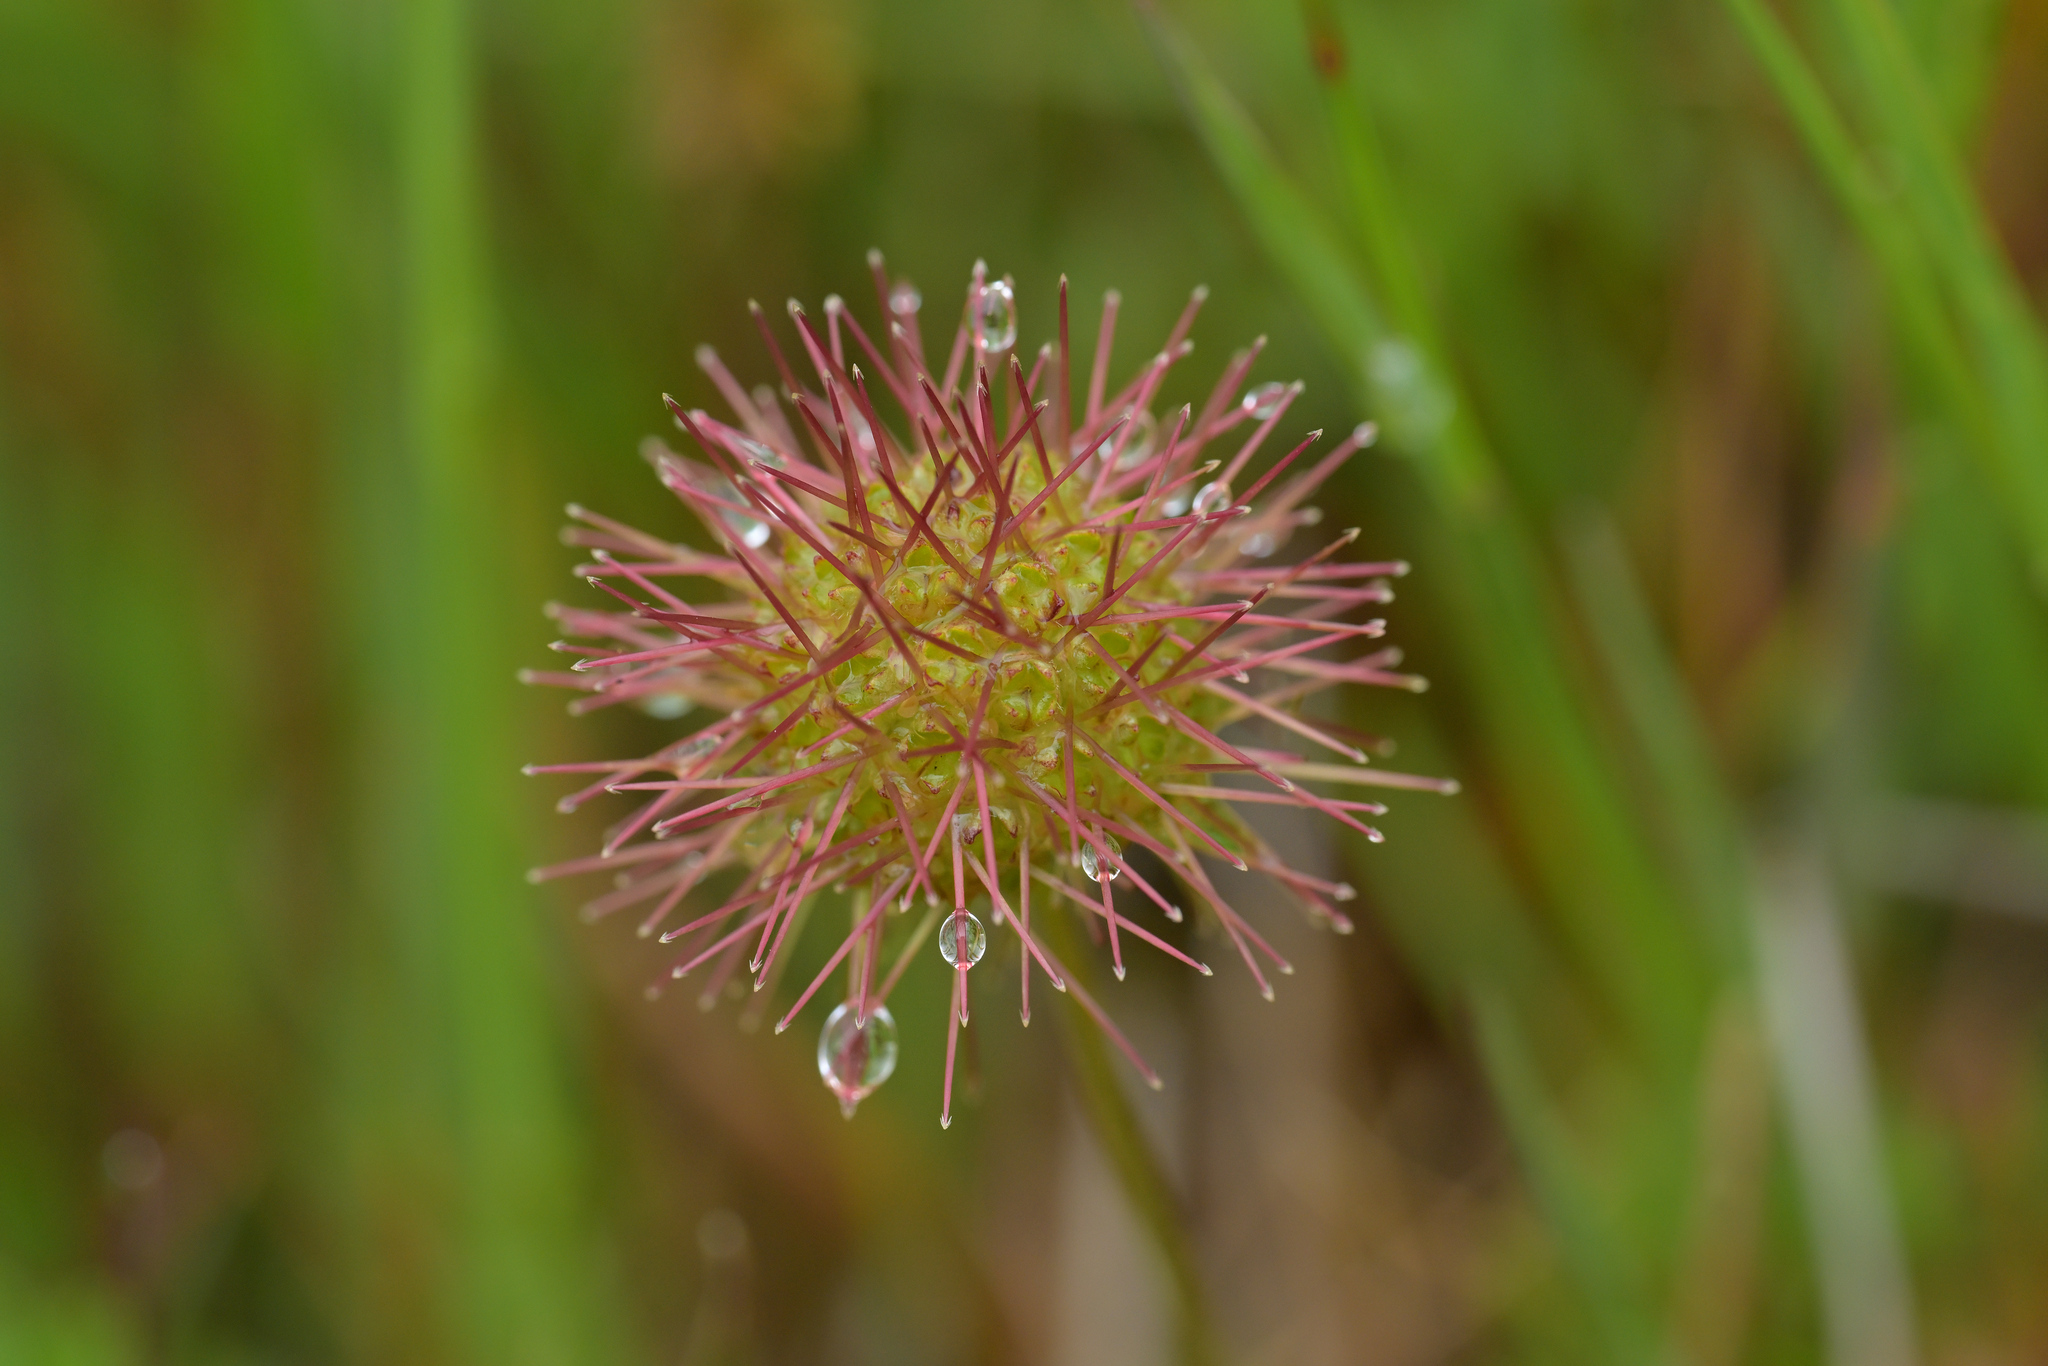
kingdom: Plantae
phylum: Tracheophyta
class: Magnoliopsida
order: Rosales
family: Rosaceae
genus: Acaena
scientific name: Acaena novae-zelandiae
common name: Pirri-pirri-bur
